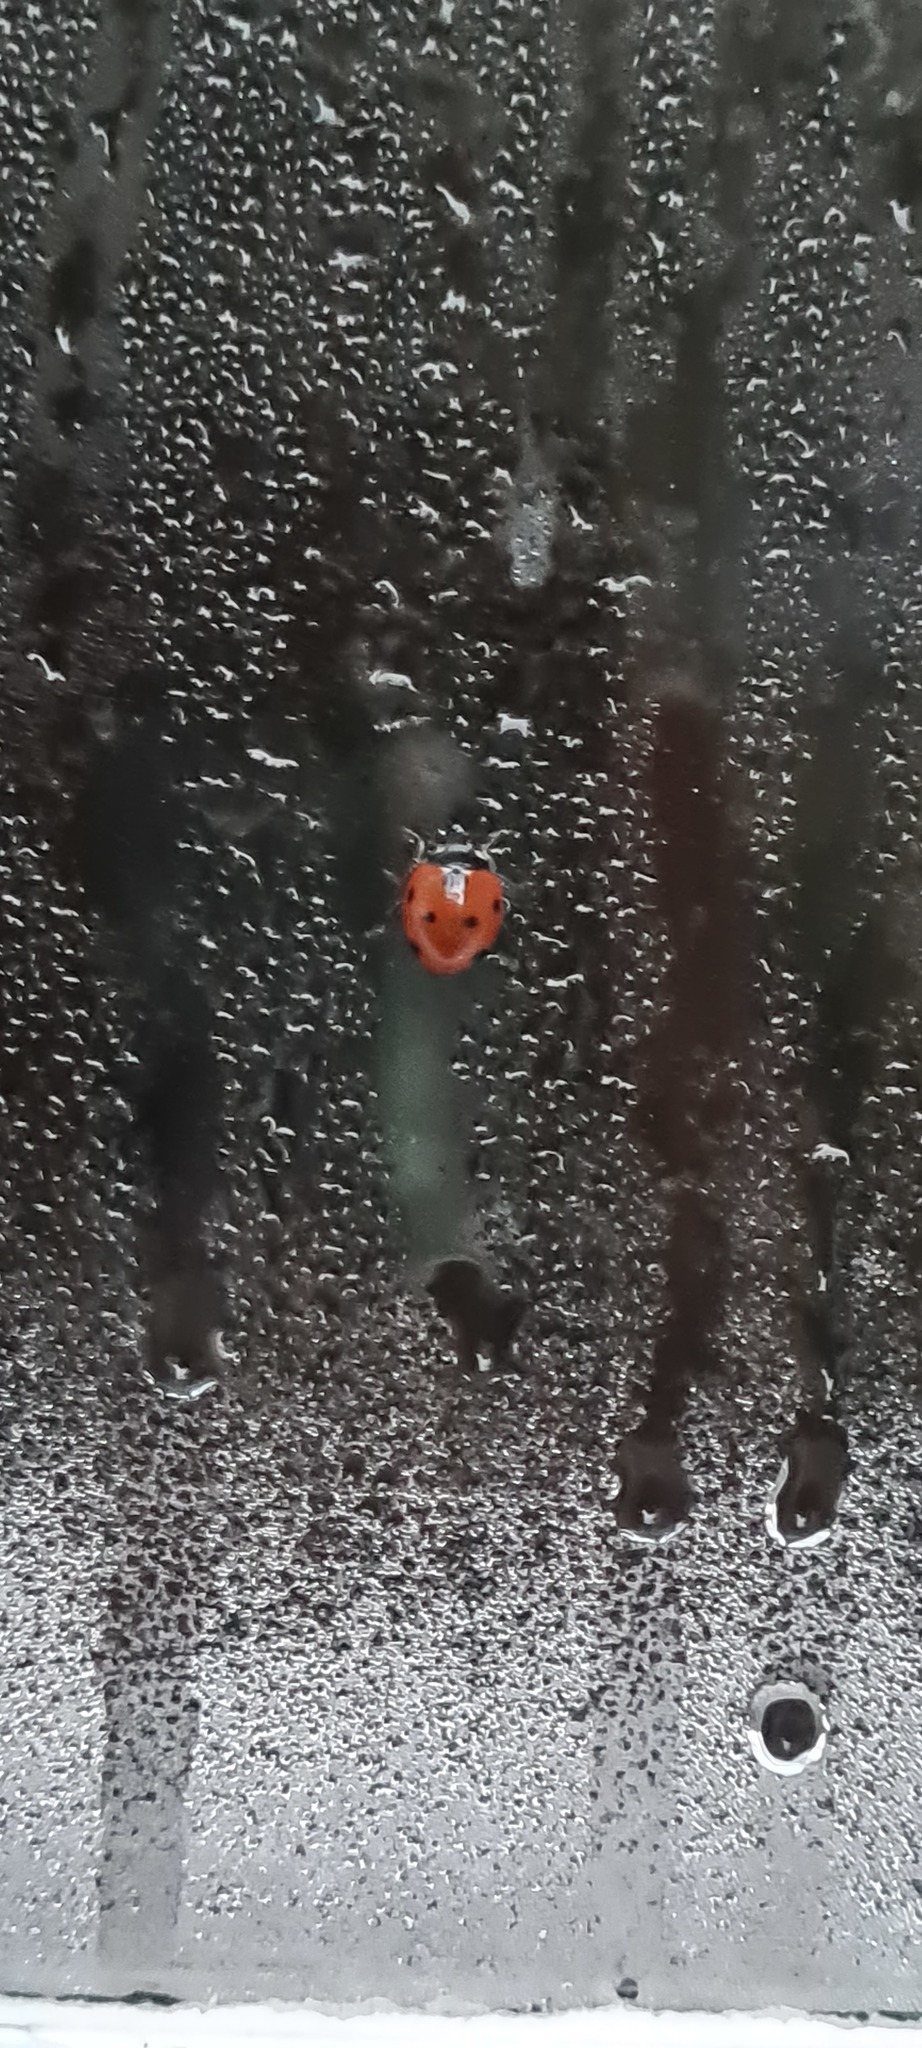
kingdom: Animalia
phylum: Arthropoda
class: Insecta
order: Coleoptera
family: Coccinellidae
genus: Coccinella
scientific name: Coccinella septempunctata
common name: Sevenspotted lady beetle
